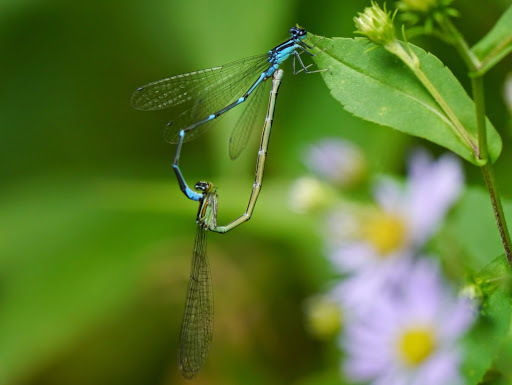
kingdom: Animalia
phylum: Arthropoda
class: Insecta
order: Odonata
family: Coenagrionidae
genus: Enallagma
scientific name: Enallagma exsulans
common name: Stream bluet
